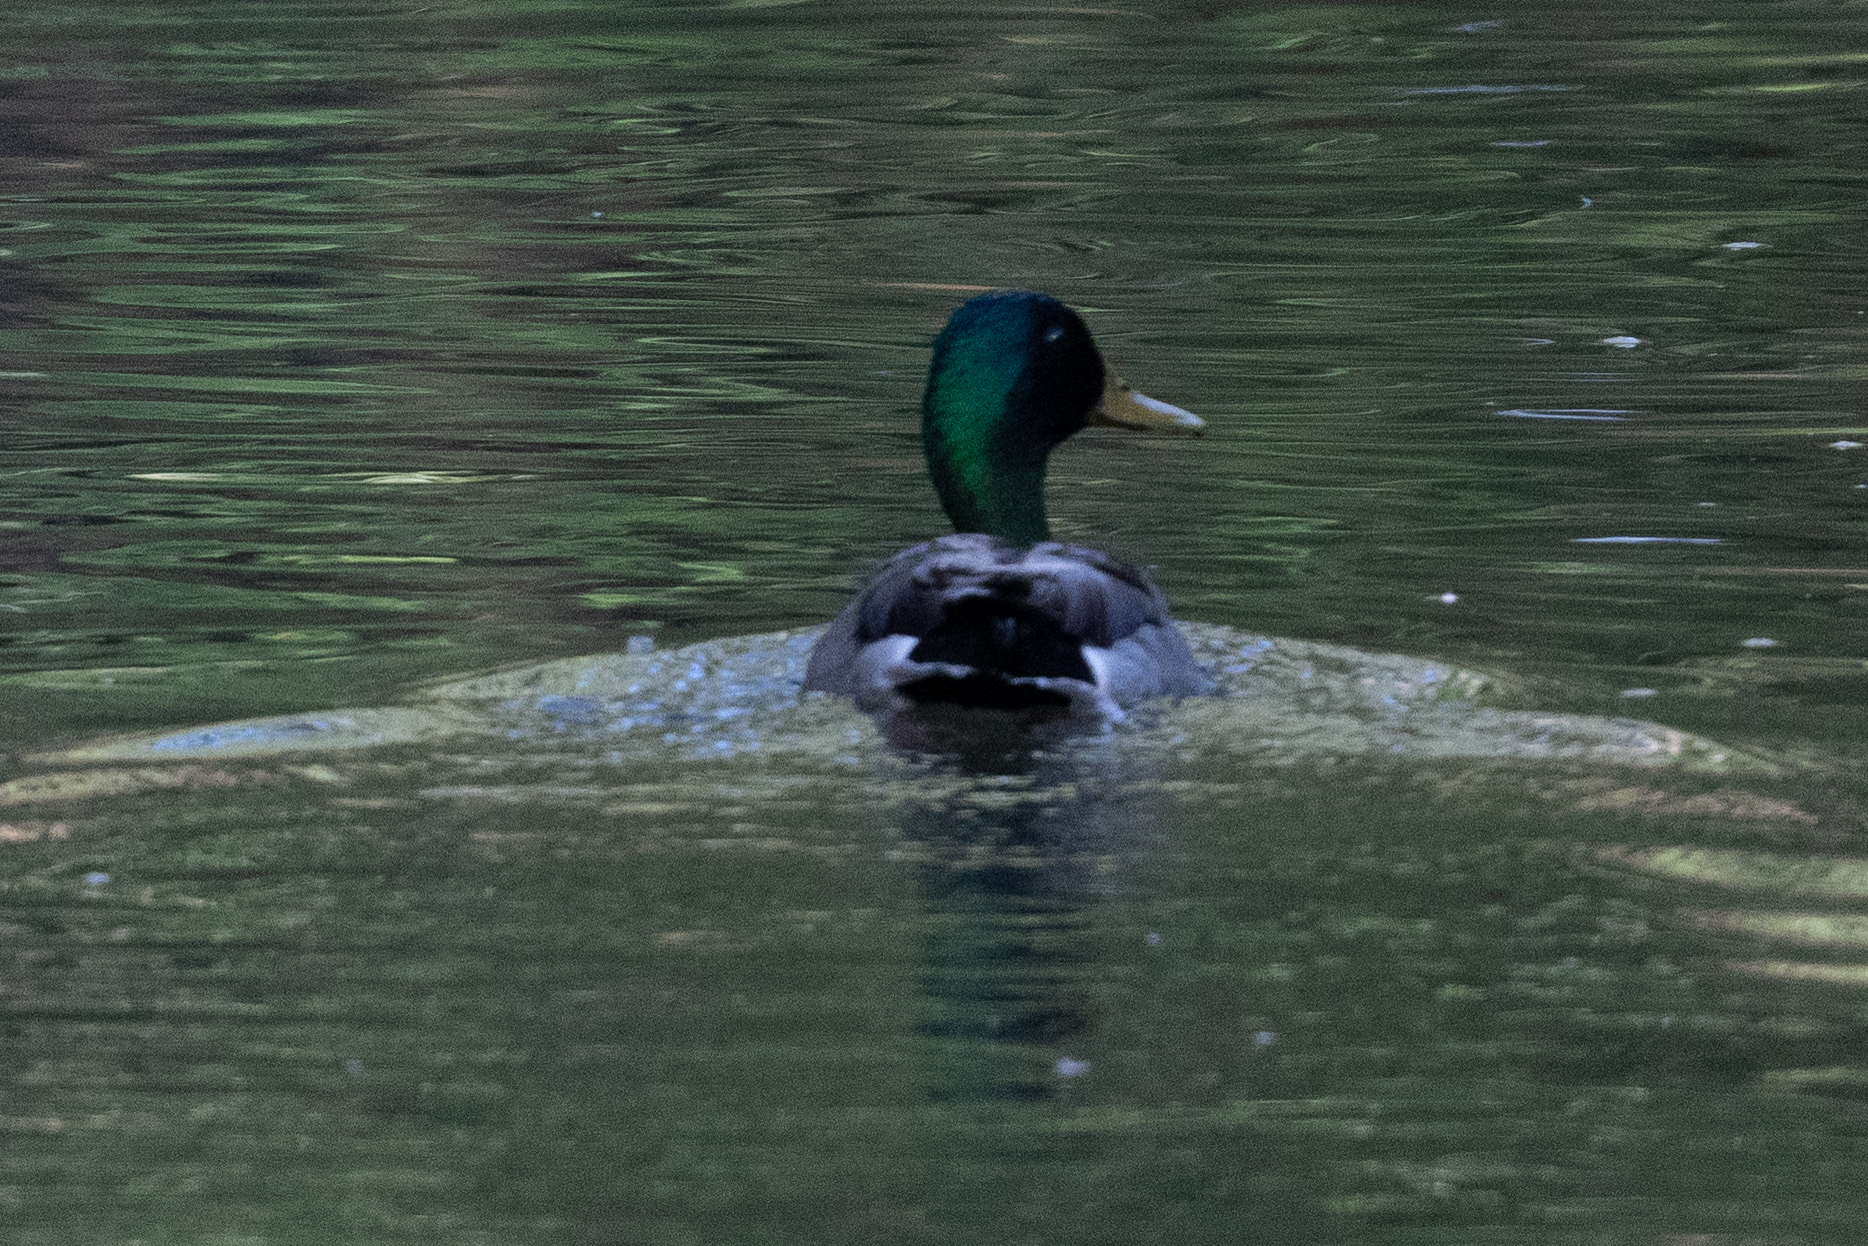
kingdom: Animalia
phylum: Chordata
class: Aves
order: Anseriformes
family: Anatidae
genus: Anas
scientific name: Anas platyrhynchos
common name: Mallard
